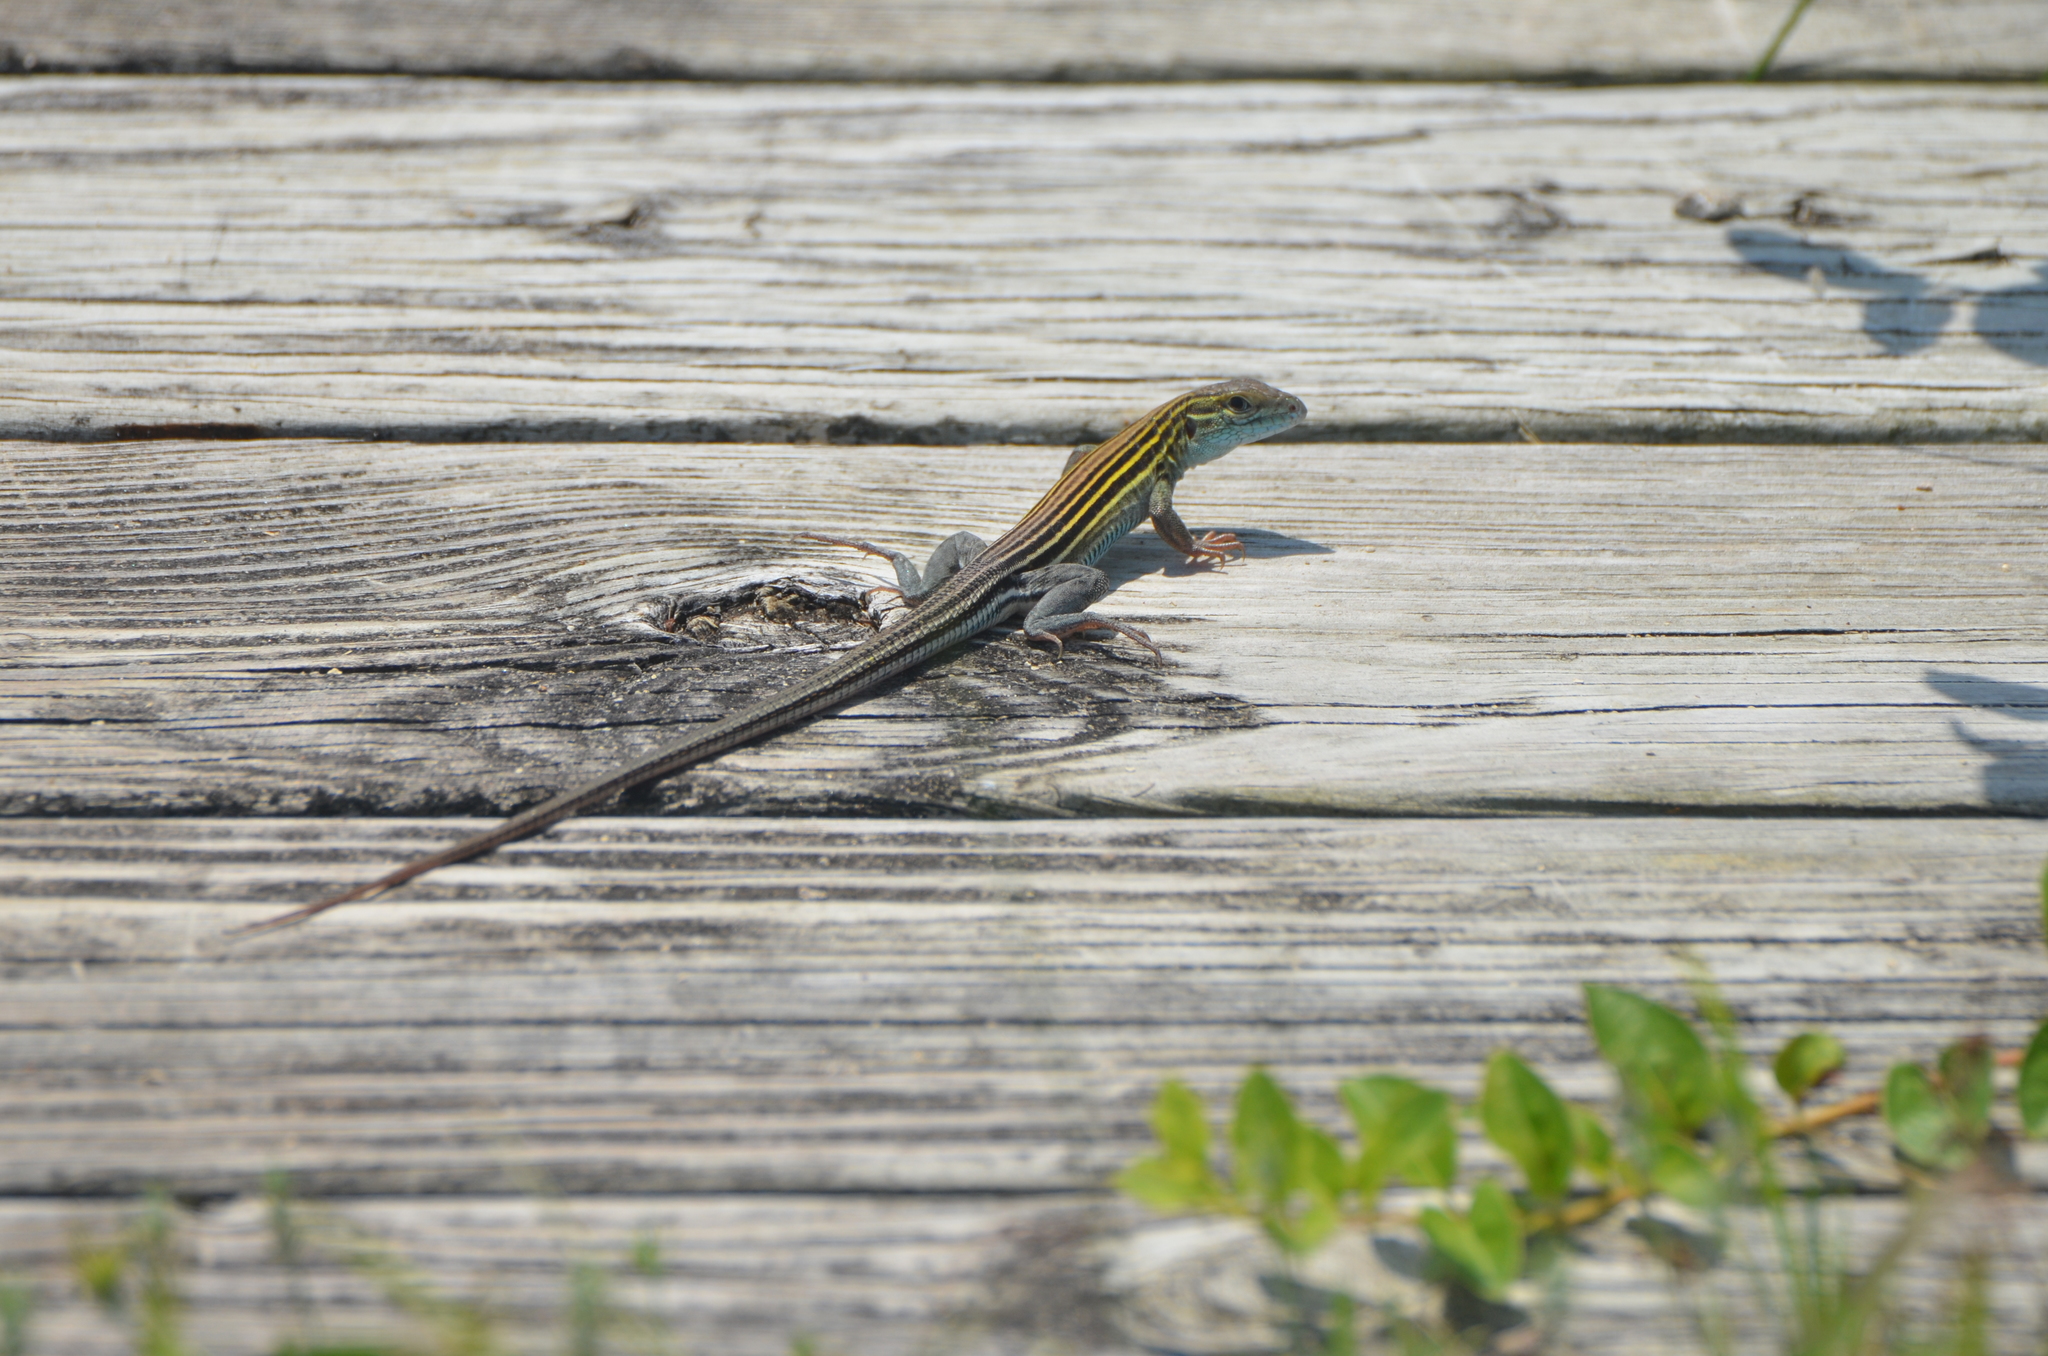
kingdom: Animalia
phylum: Chordata
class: Squamata
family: Teiidae
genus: Aspidoscelis
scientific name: Aspidoscelis sexlineatus
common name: Six-lined racerunner
